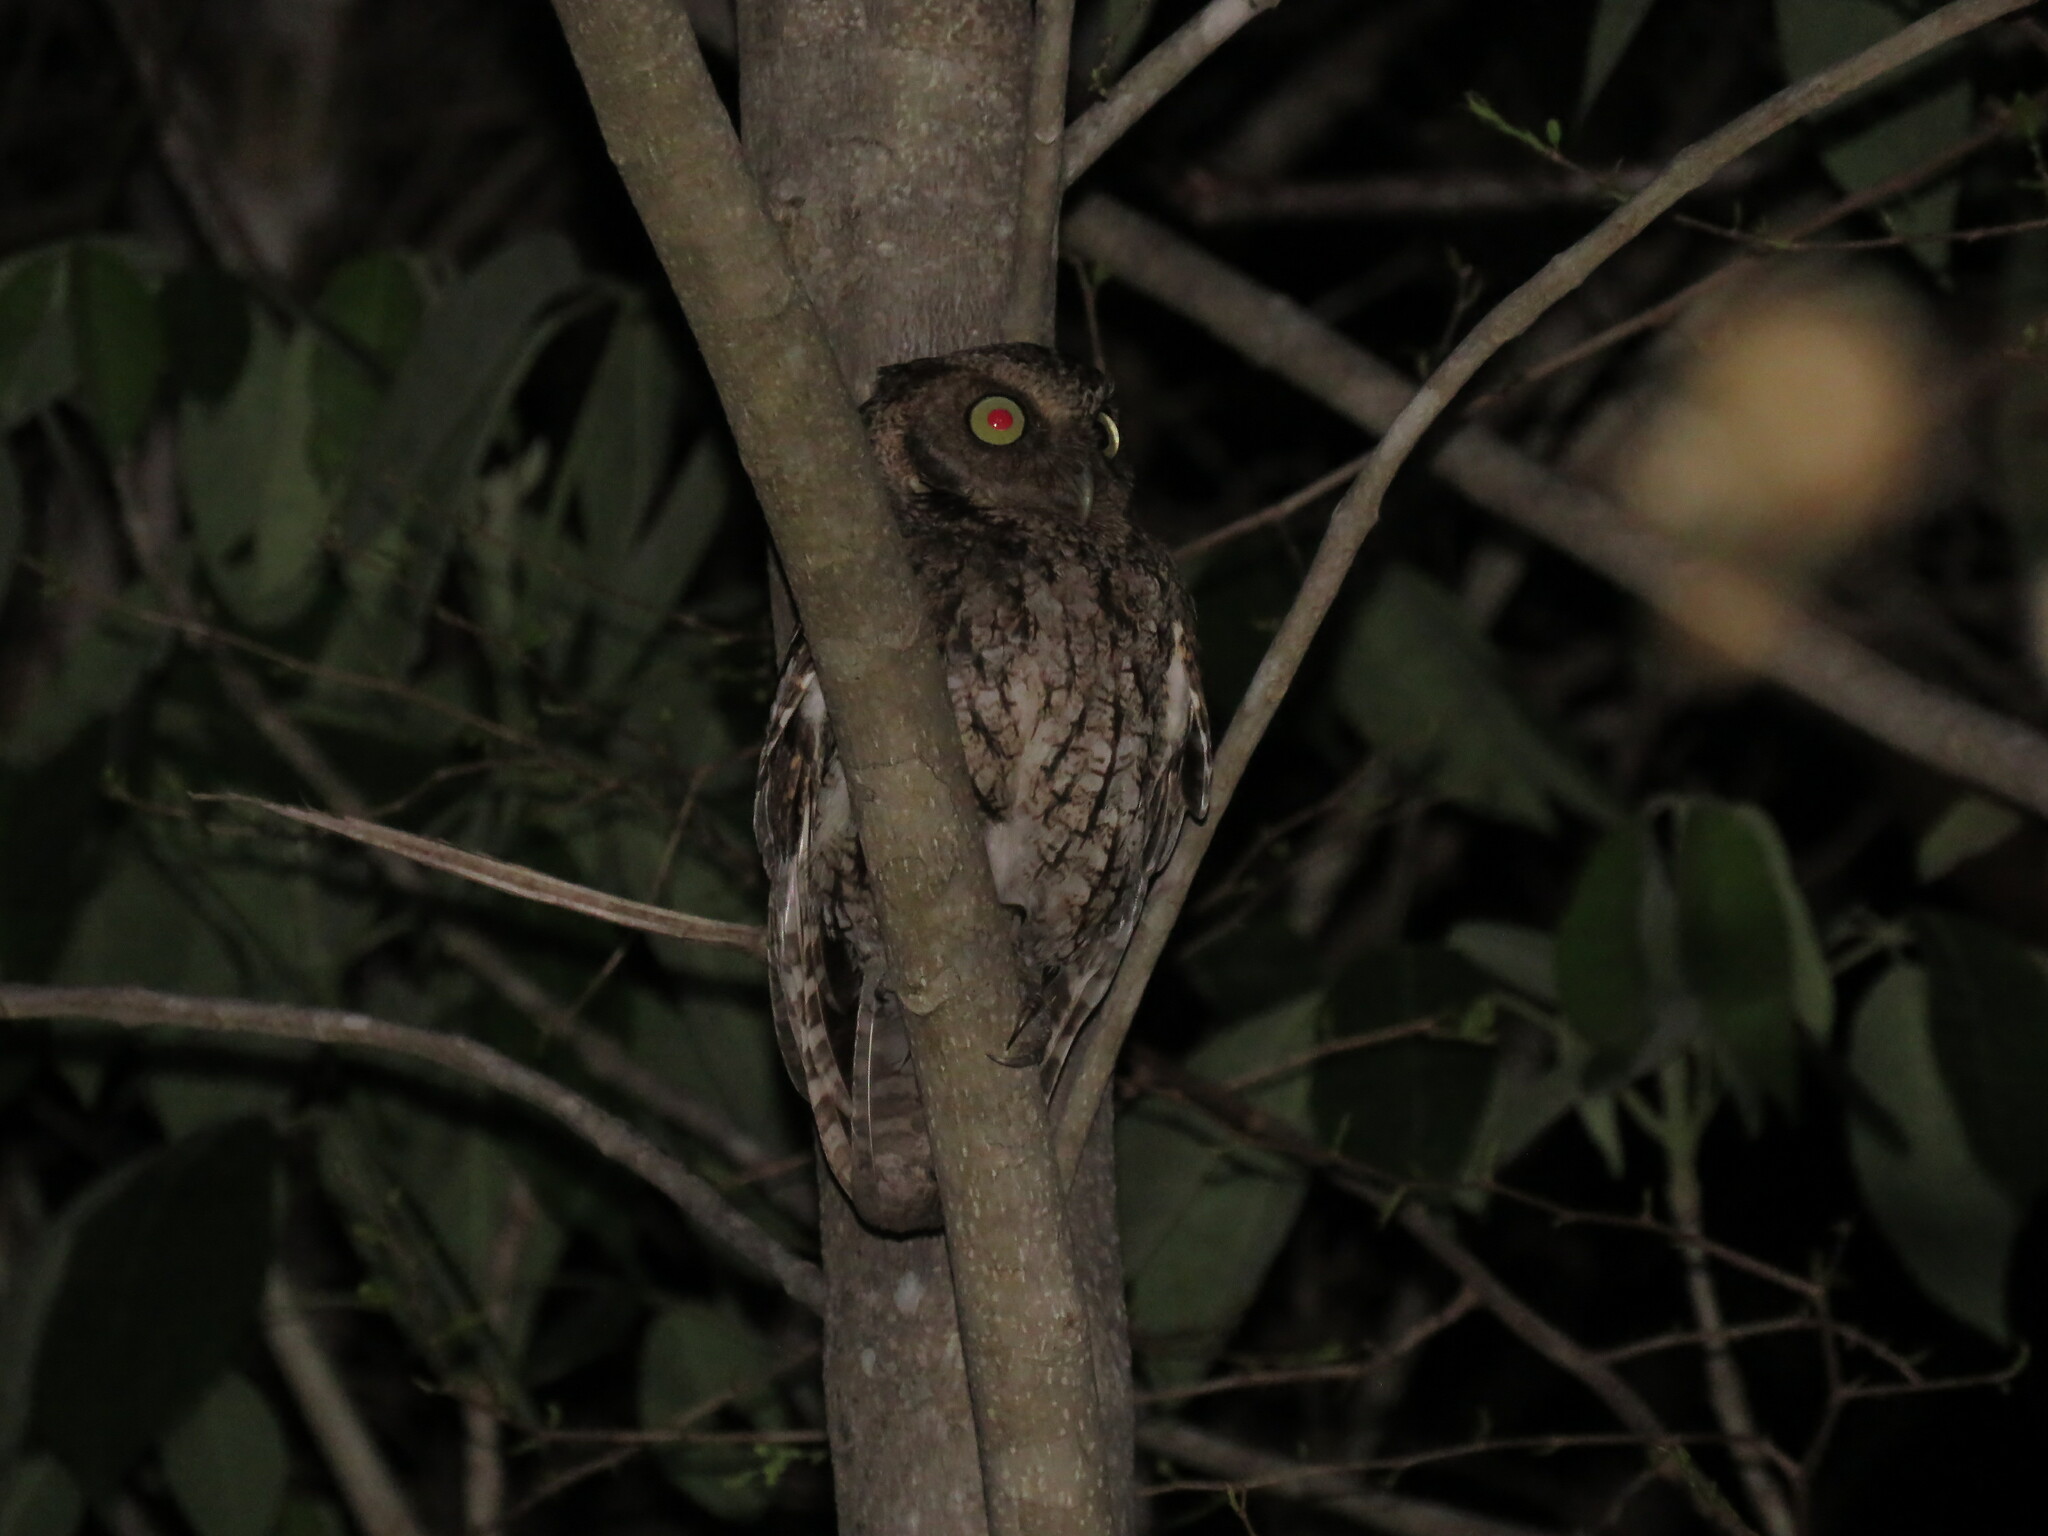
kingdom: Animalia
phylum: Chordata
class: Aves
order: Strigiformes
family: Strigidae
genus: Megascops
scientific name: Megascops guatemalae
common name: Vermiculated screech-owl
